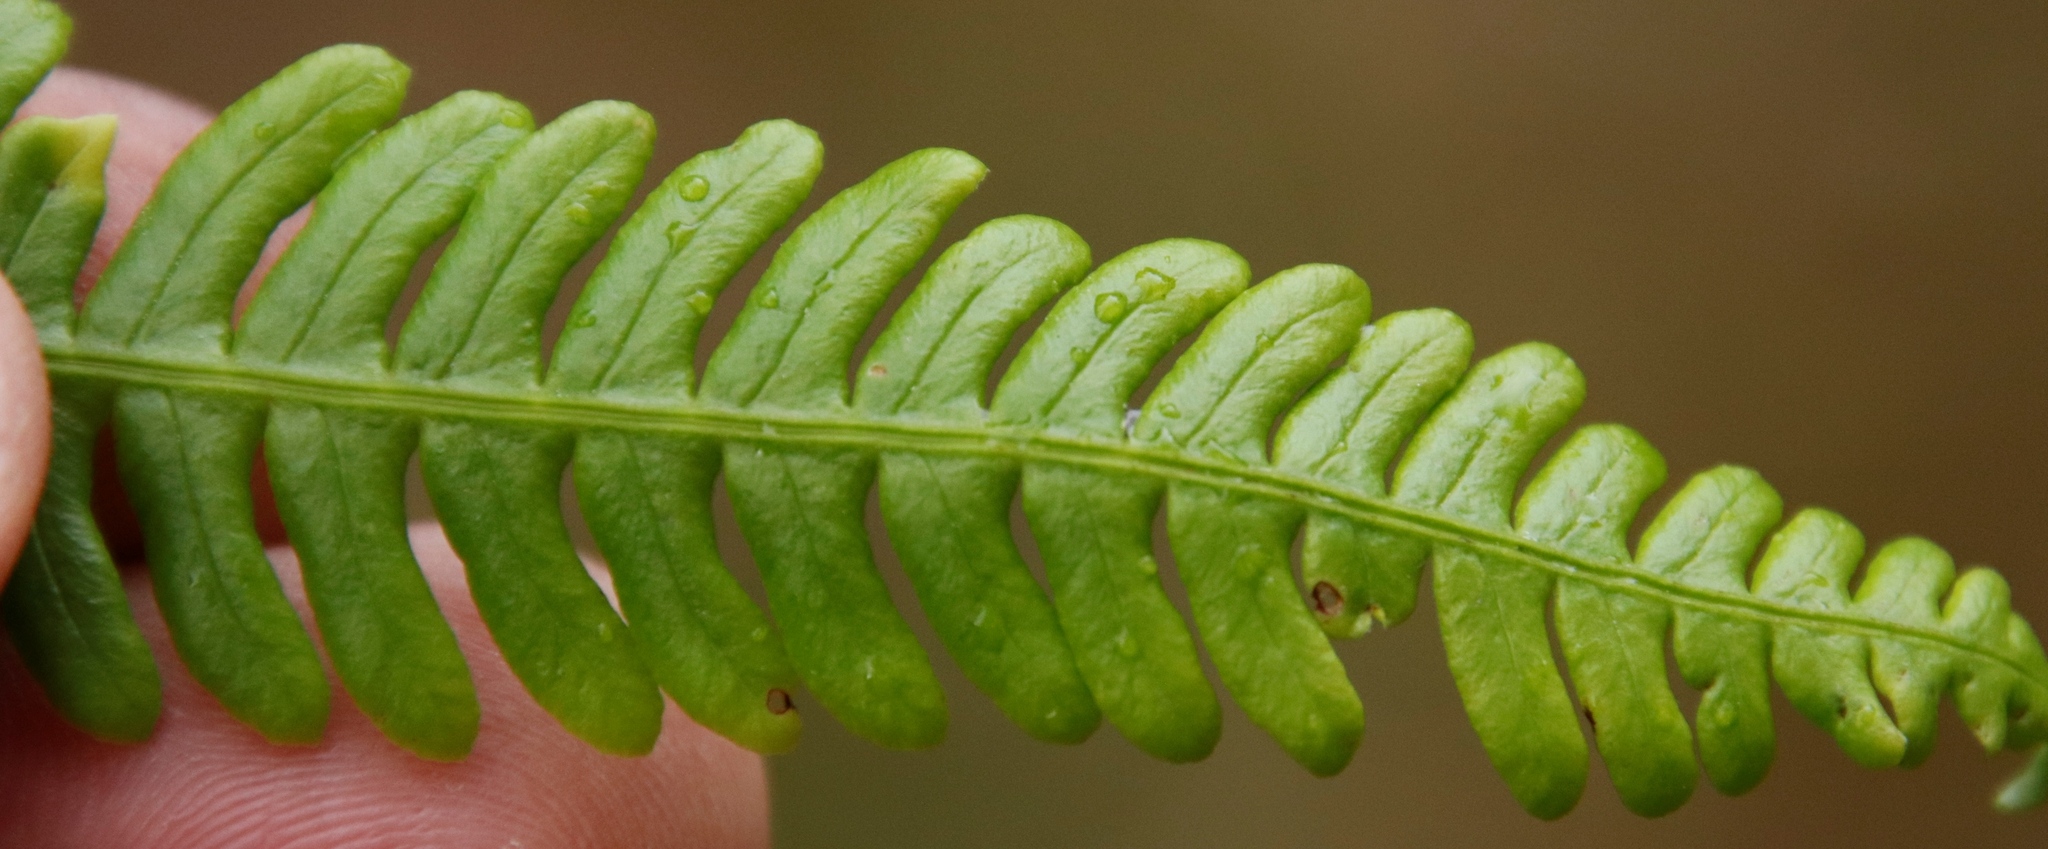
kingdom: Plantae
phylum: Tracheophyta
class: Polypodiopsida
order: Polypodiales
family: Blechnaceae
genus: Struthiopteris
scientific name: Struthiopteris spicant
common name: Deer fern
